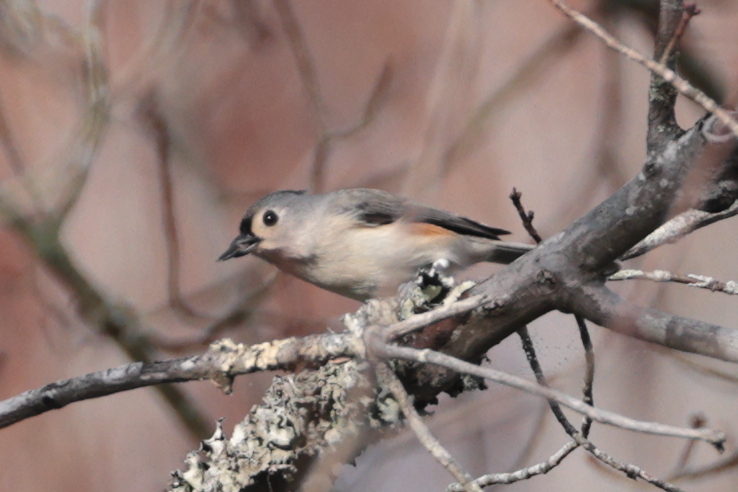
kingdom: Animalia
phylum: Chordata
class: Aves
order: Passeriformes
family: Paridae
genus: Baeolophus
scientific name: Baeolophus bicolor
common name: Tufted titmouse
